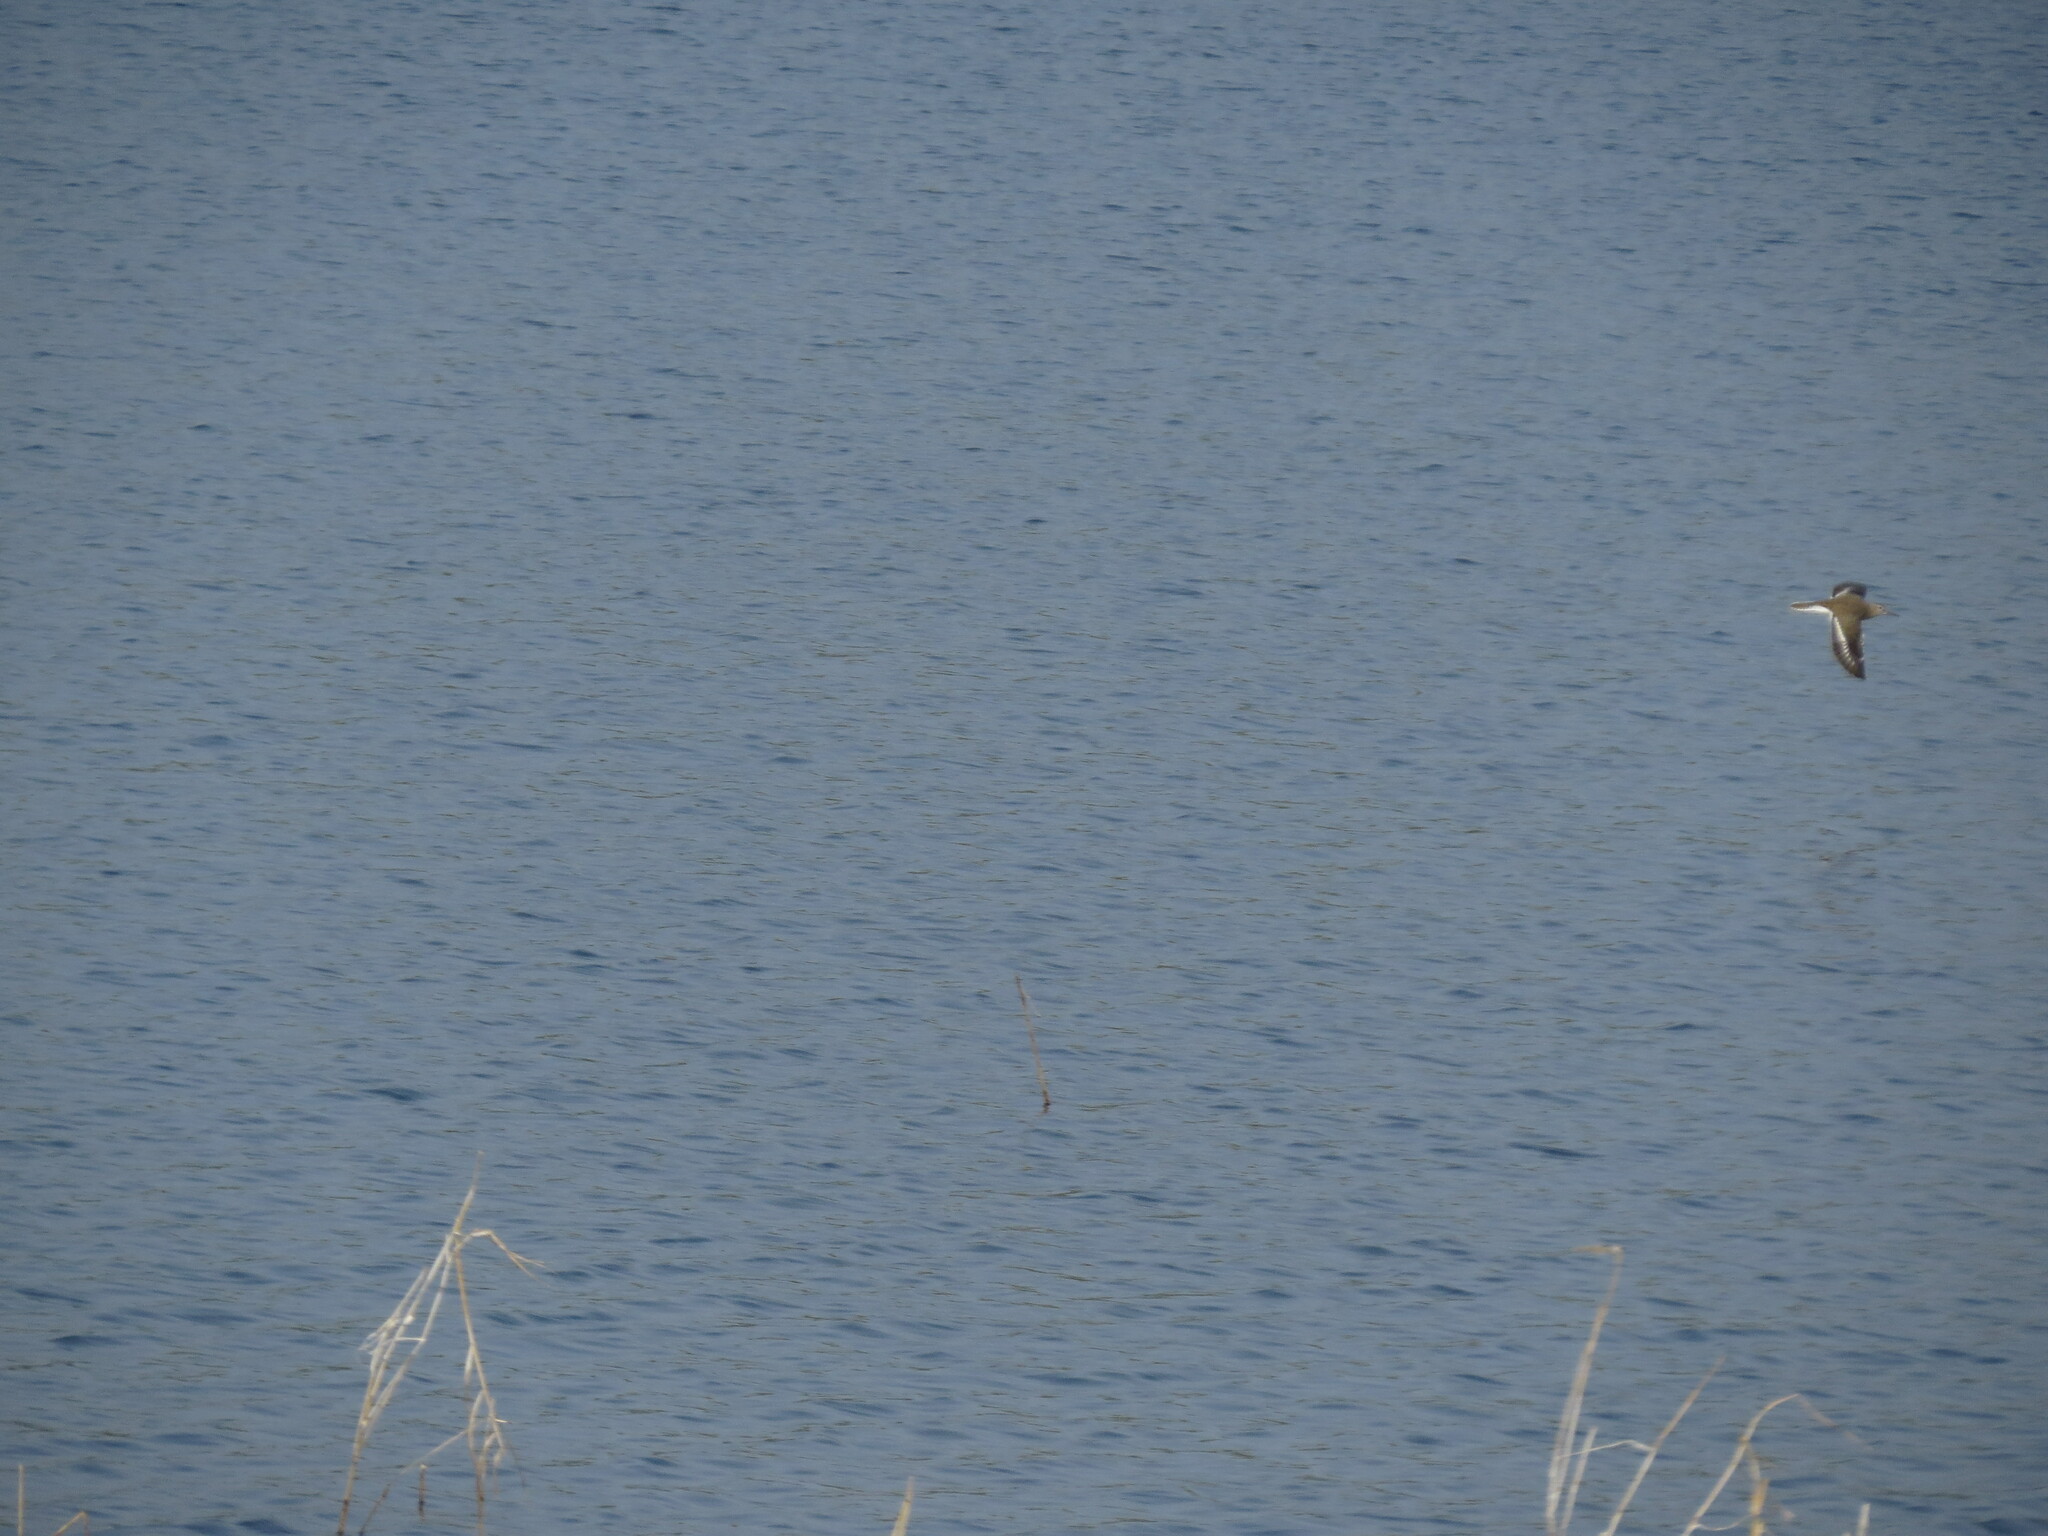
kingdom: Animalia
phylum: Chordata
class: Aves
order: Charadriiformes
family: Scolopacidae
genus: Actitis
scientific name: Actitis hypoleucos
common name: Common sandpiper
